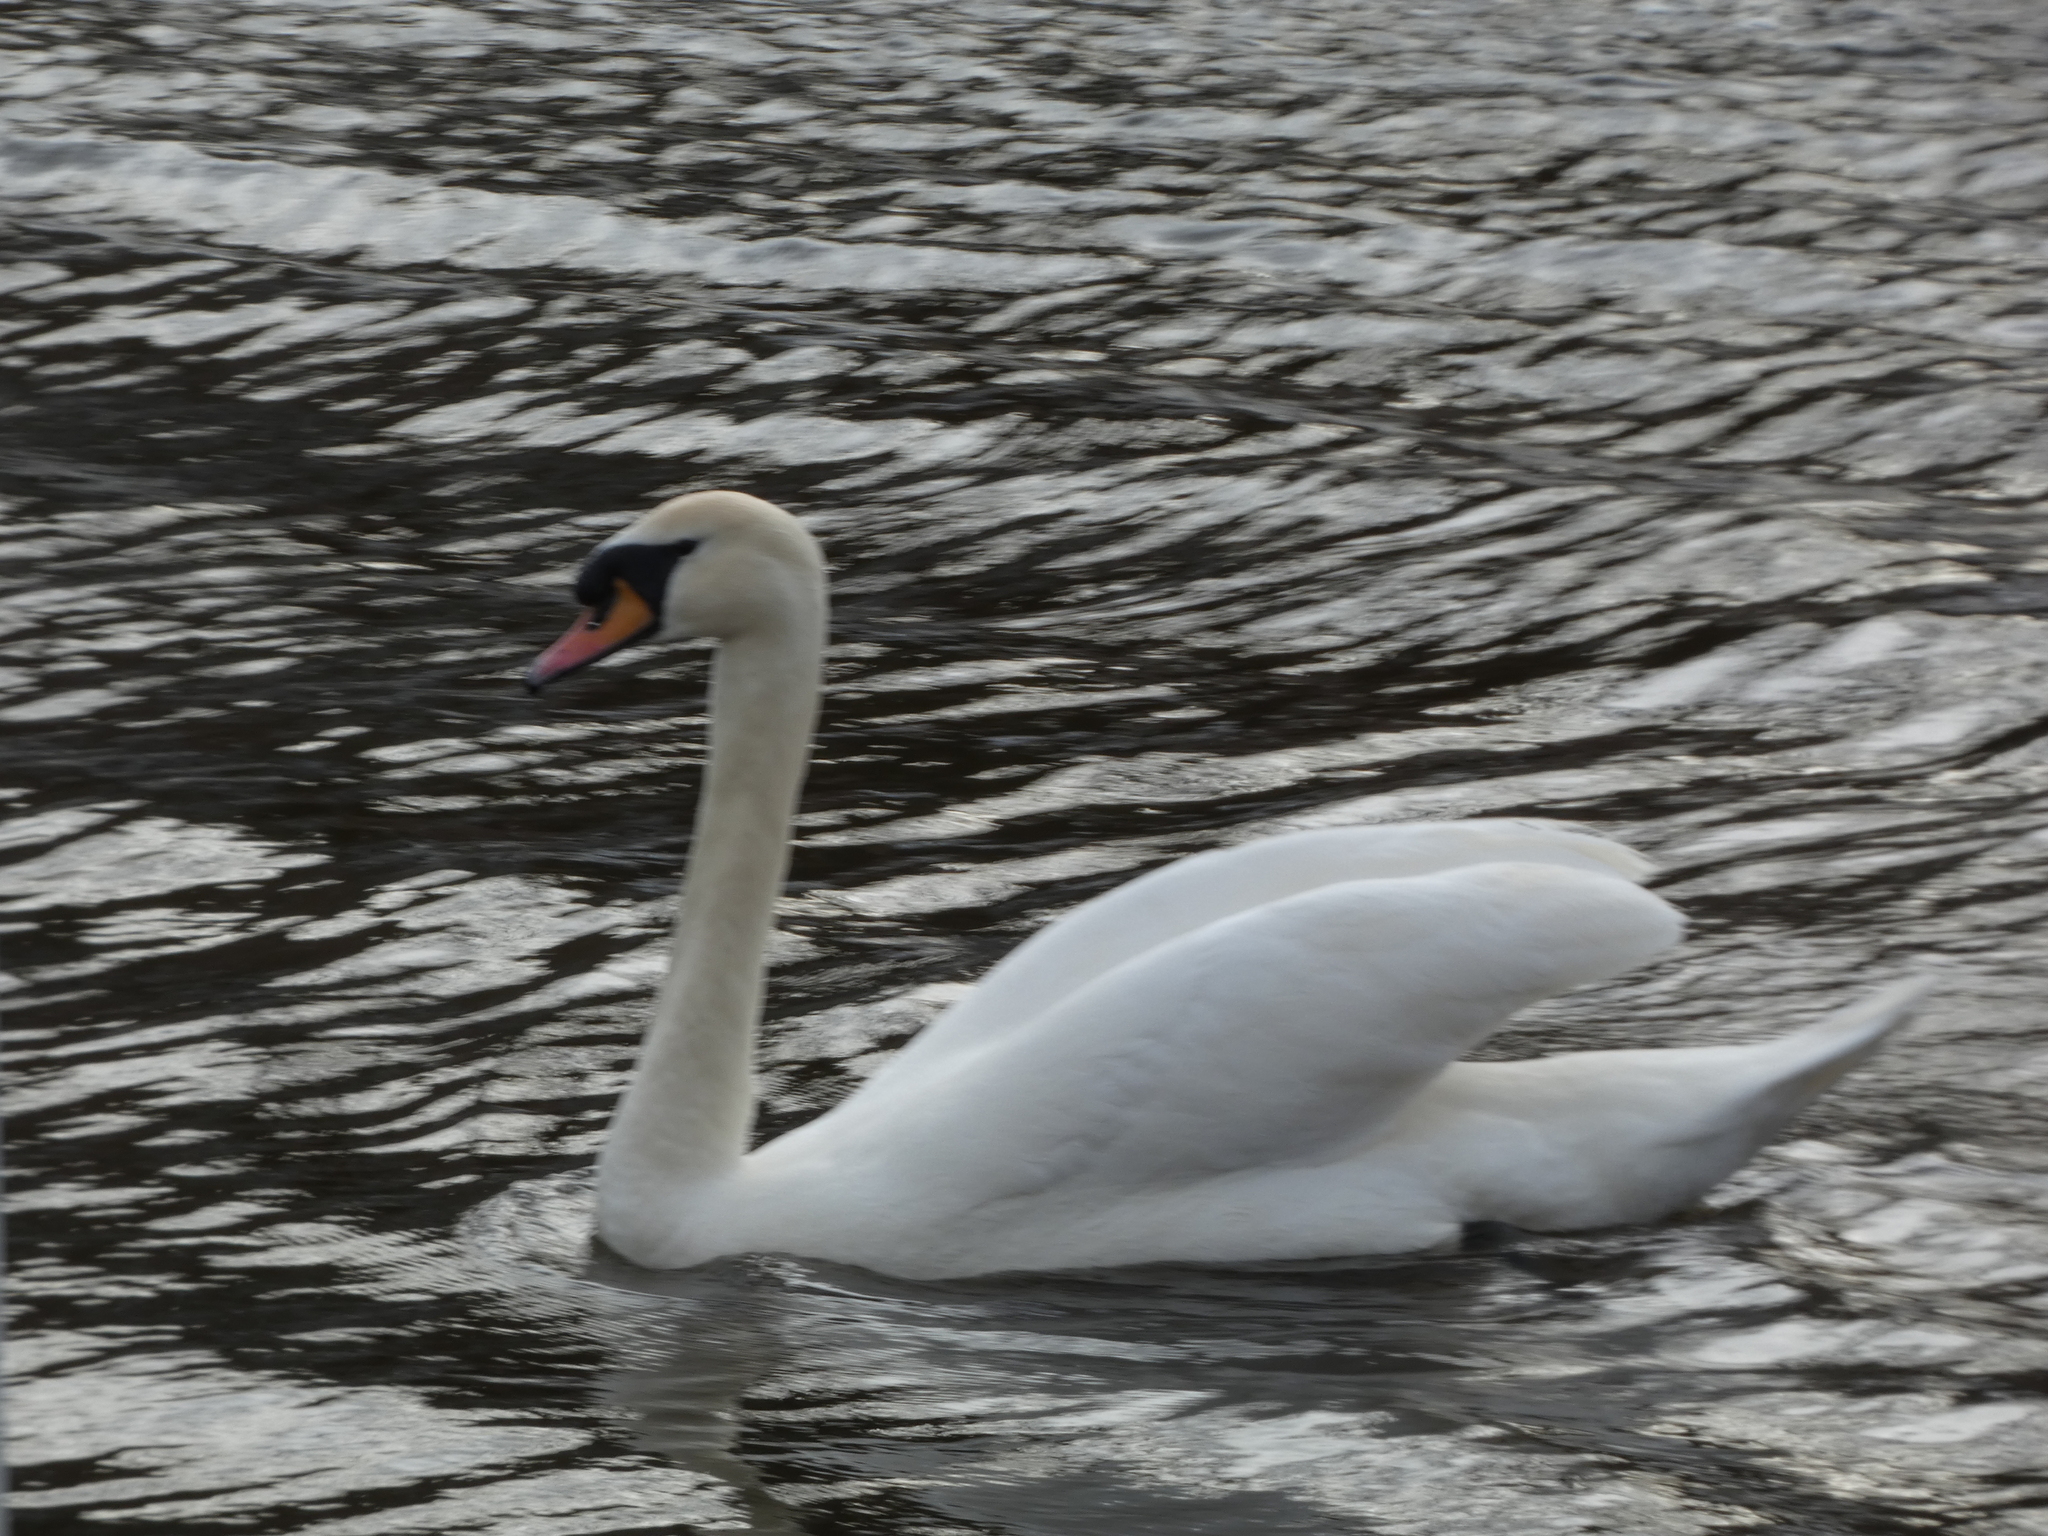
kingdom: Animalia
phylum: Chordata
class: Aves
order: Anseriformes
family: Anatidae
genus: Cygnus
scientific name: Cygnus olor
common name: Mute swan
